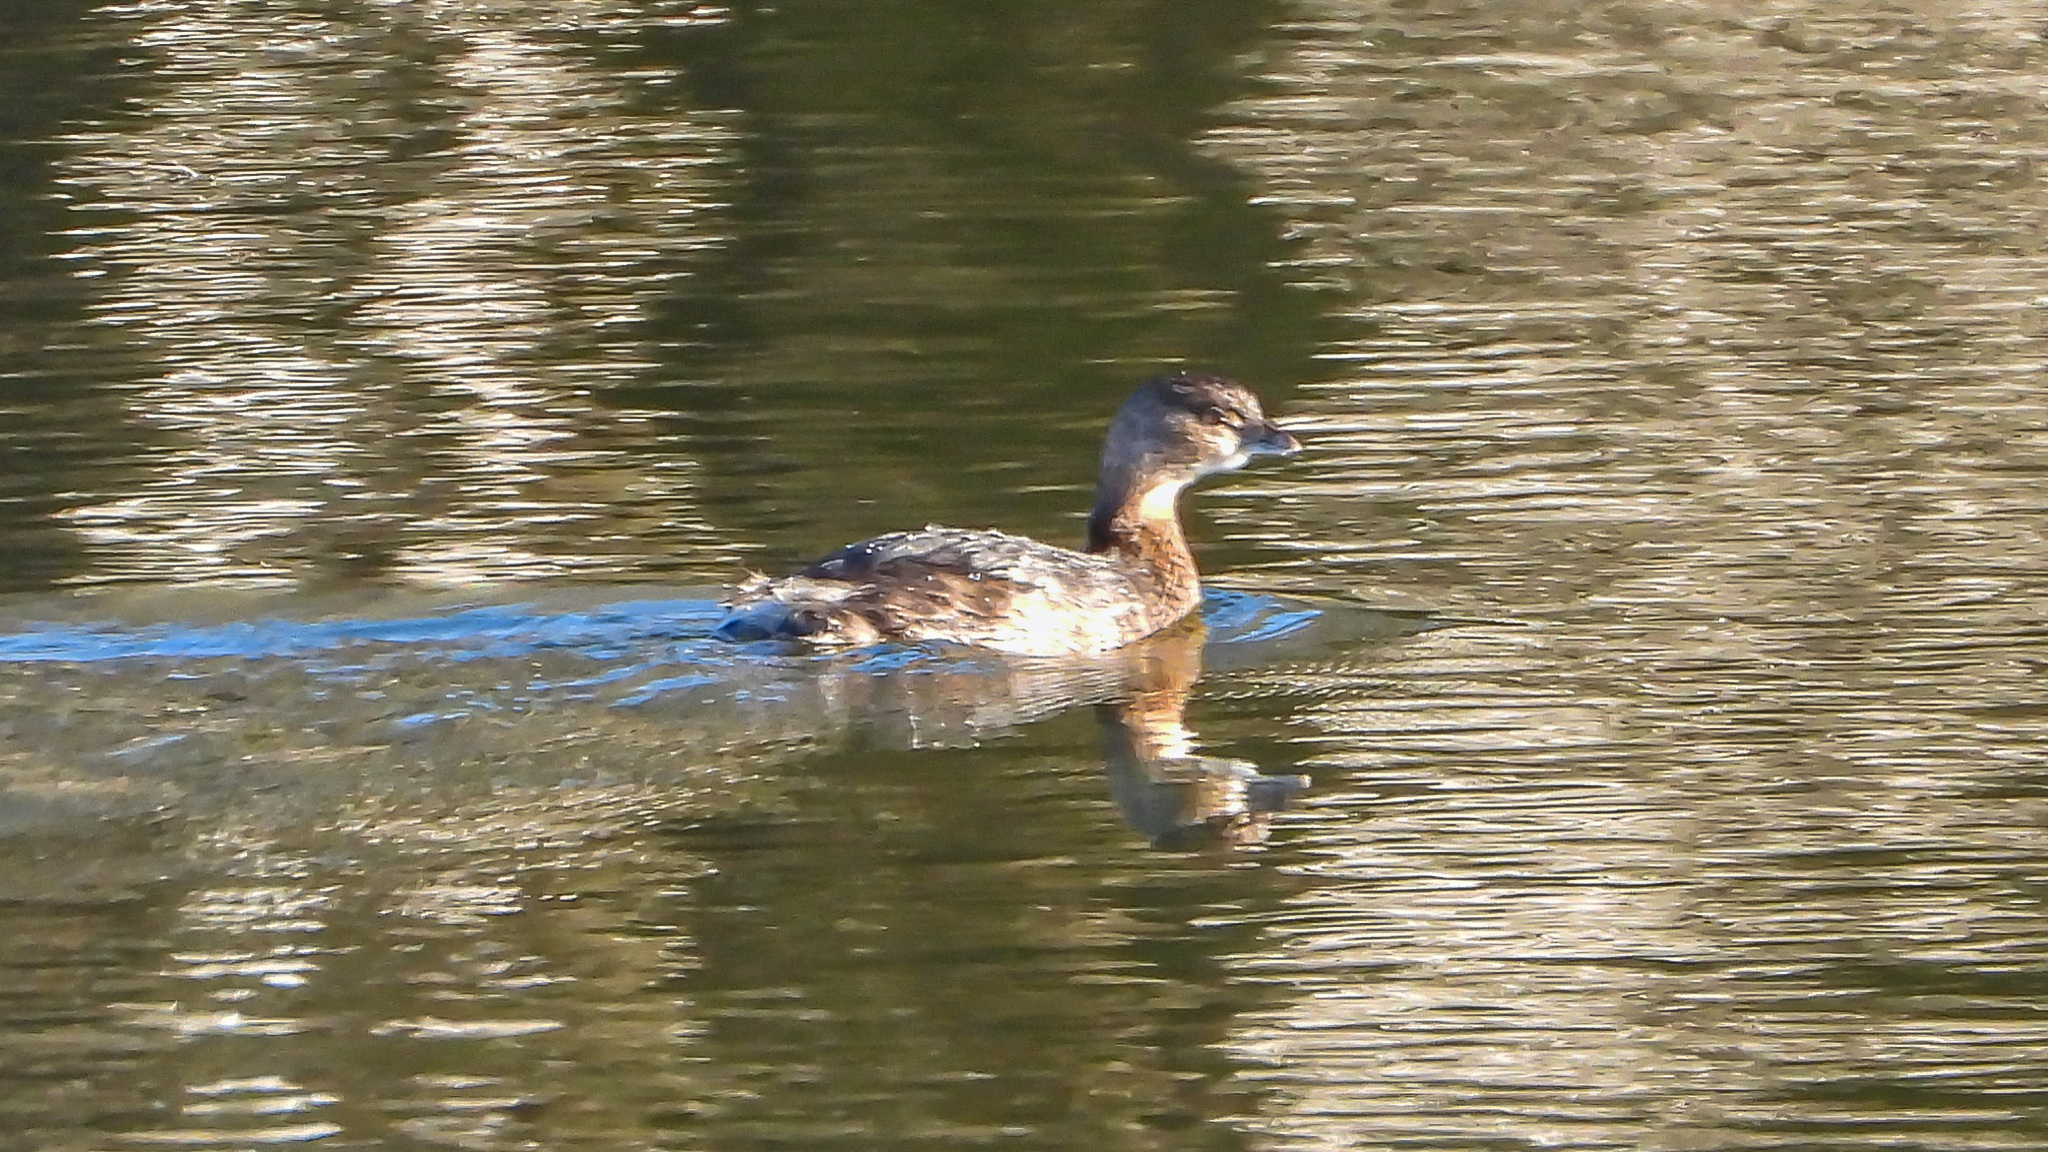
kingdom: Animalia
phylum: Chordata
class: Aves
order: Podicipediformes
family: Podicipedidae
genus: Podilymbus
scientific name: Podilymbus podiceps
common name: Pied-billed grebe
